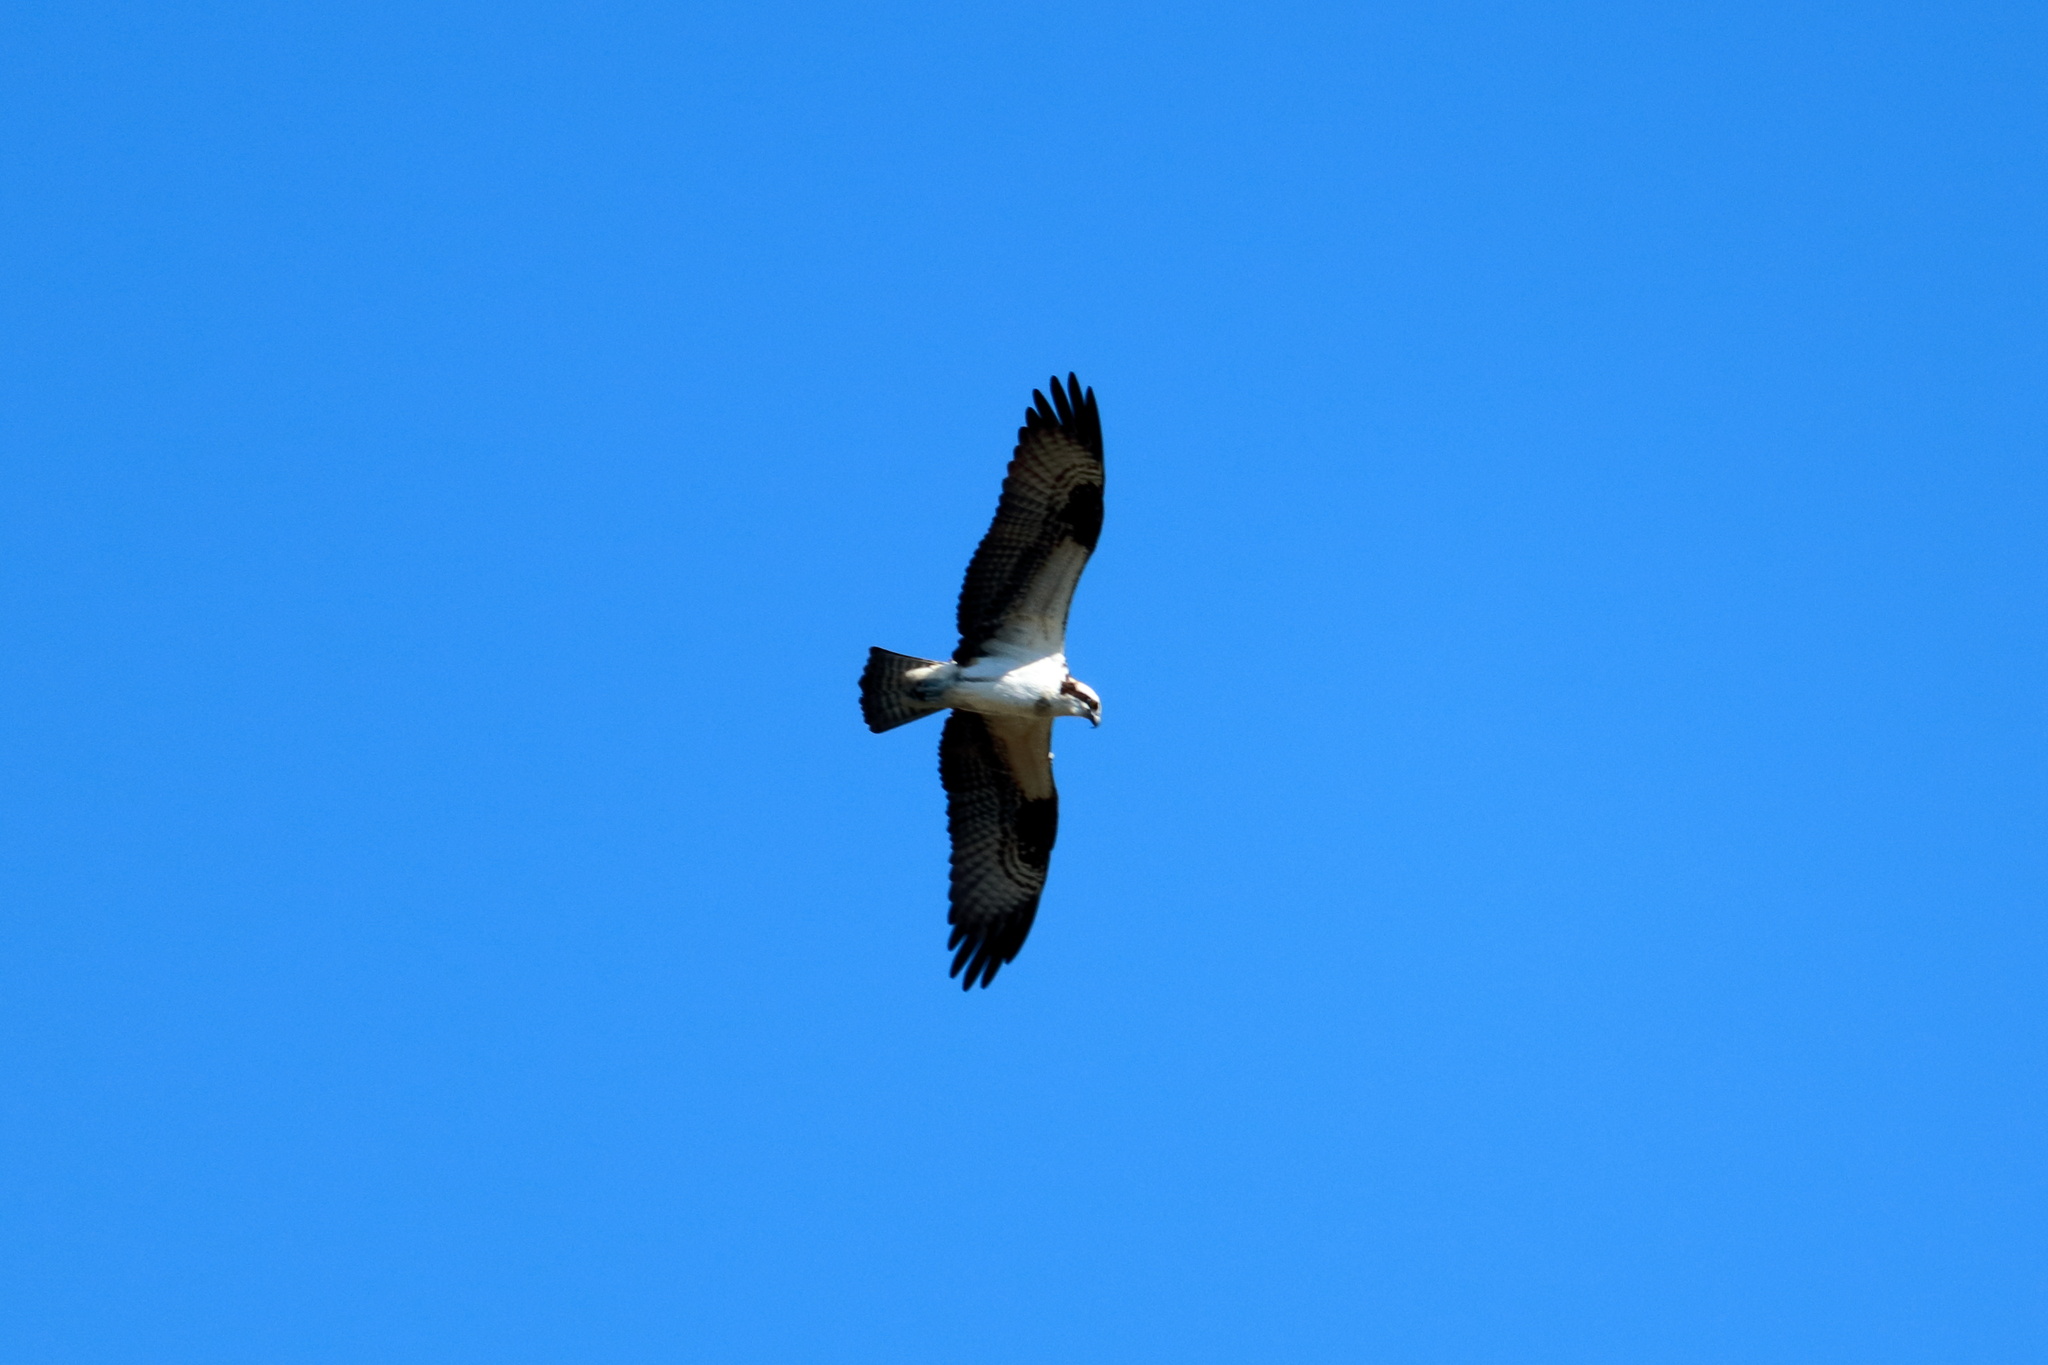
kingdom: Animalia
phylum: Chordata
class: Aves
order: Accipitriformes
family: Pandionidae
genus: Pandion
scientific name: Pandion haliaetus
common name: Osprey
